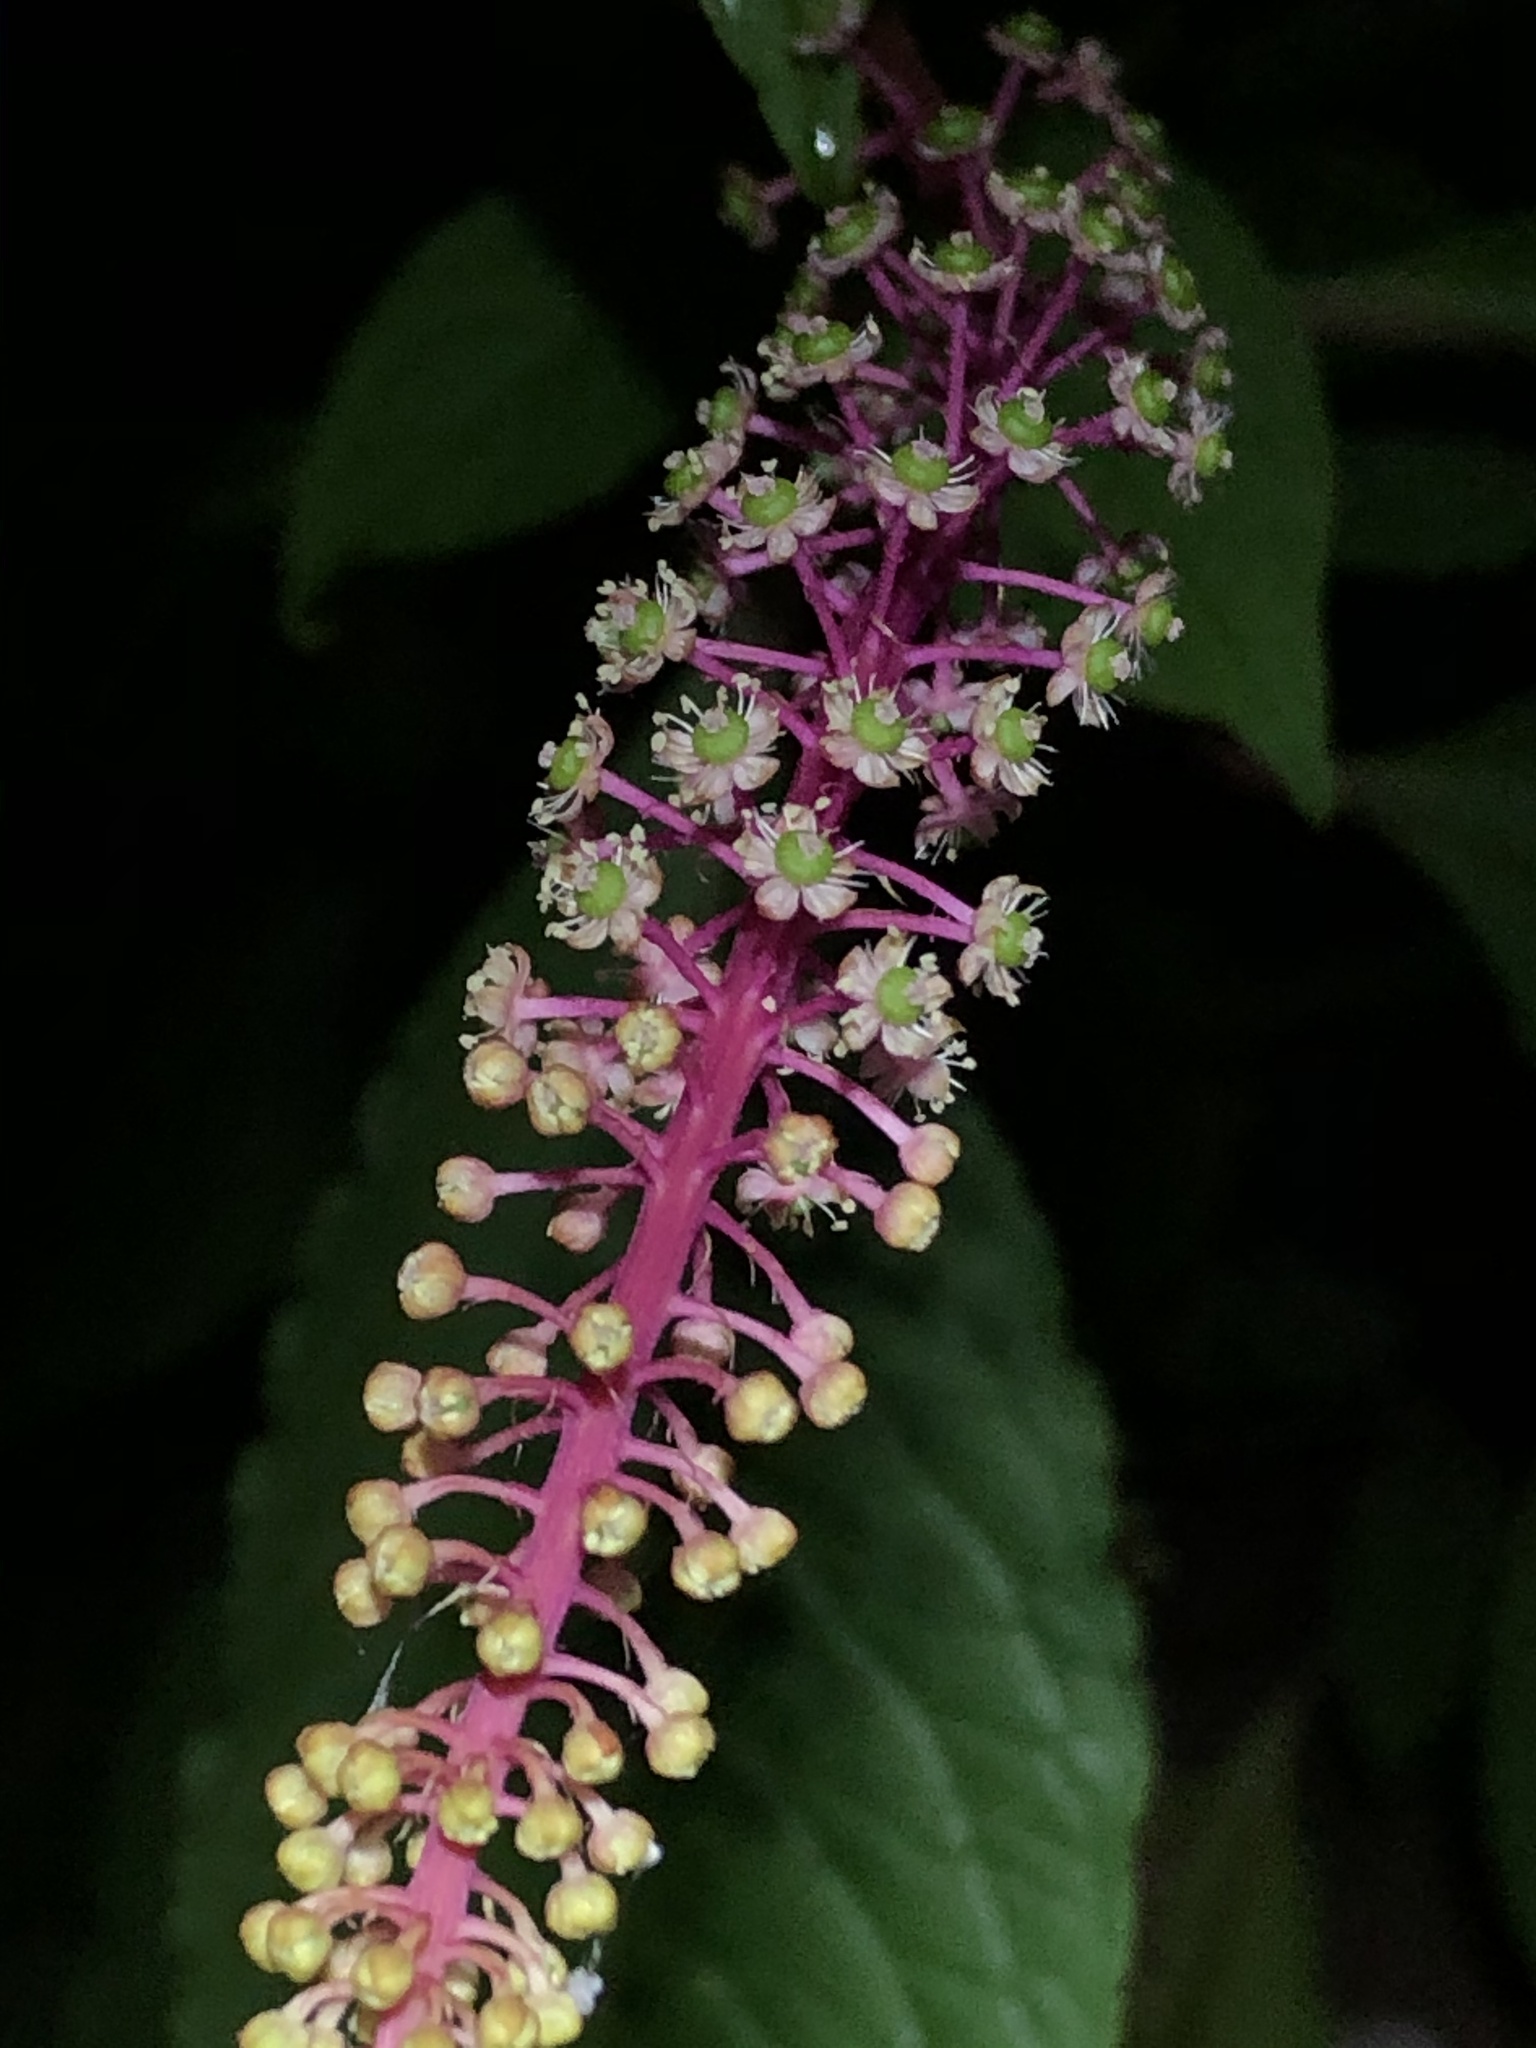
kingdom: Plantae
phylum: Tracheophyta
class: Magnoliopsida
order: Caryophyllales
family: Phytolaccaceae
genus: Phytolacca
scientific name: Phytolacca rivinoides
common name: Venezuelan pokeweed
